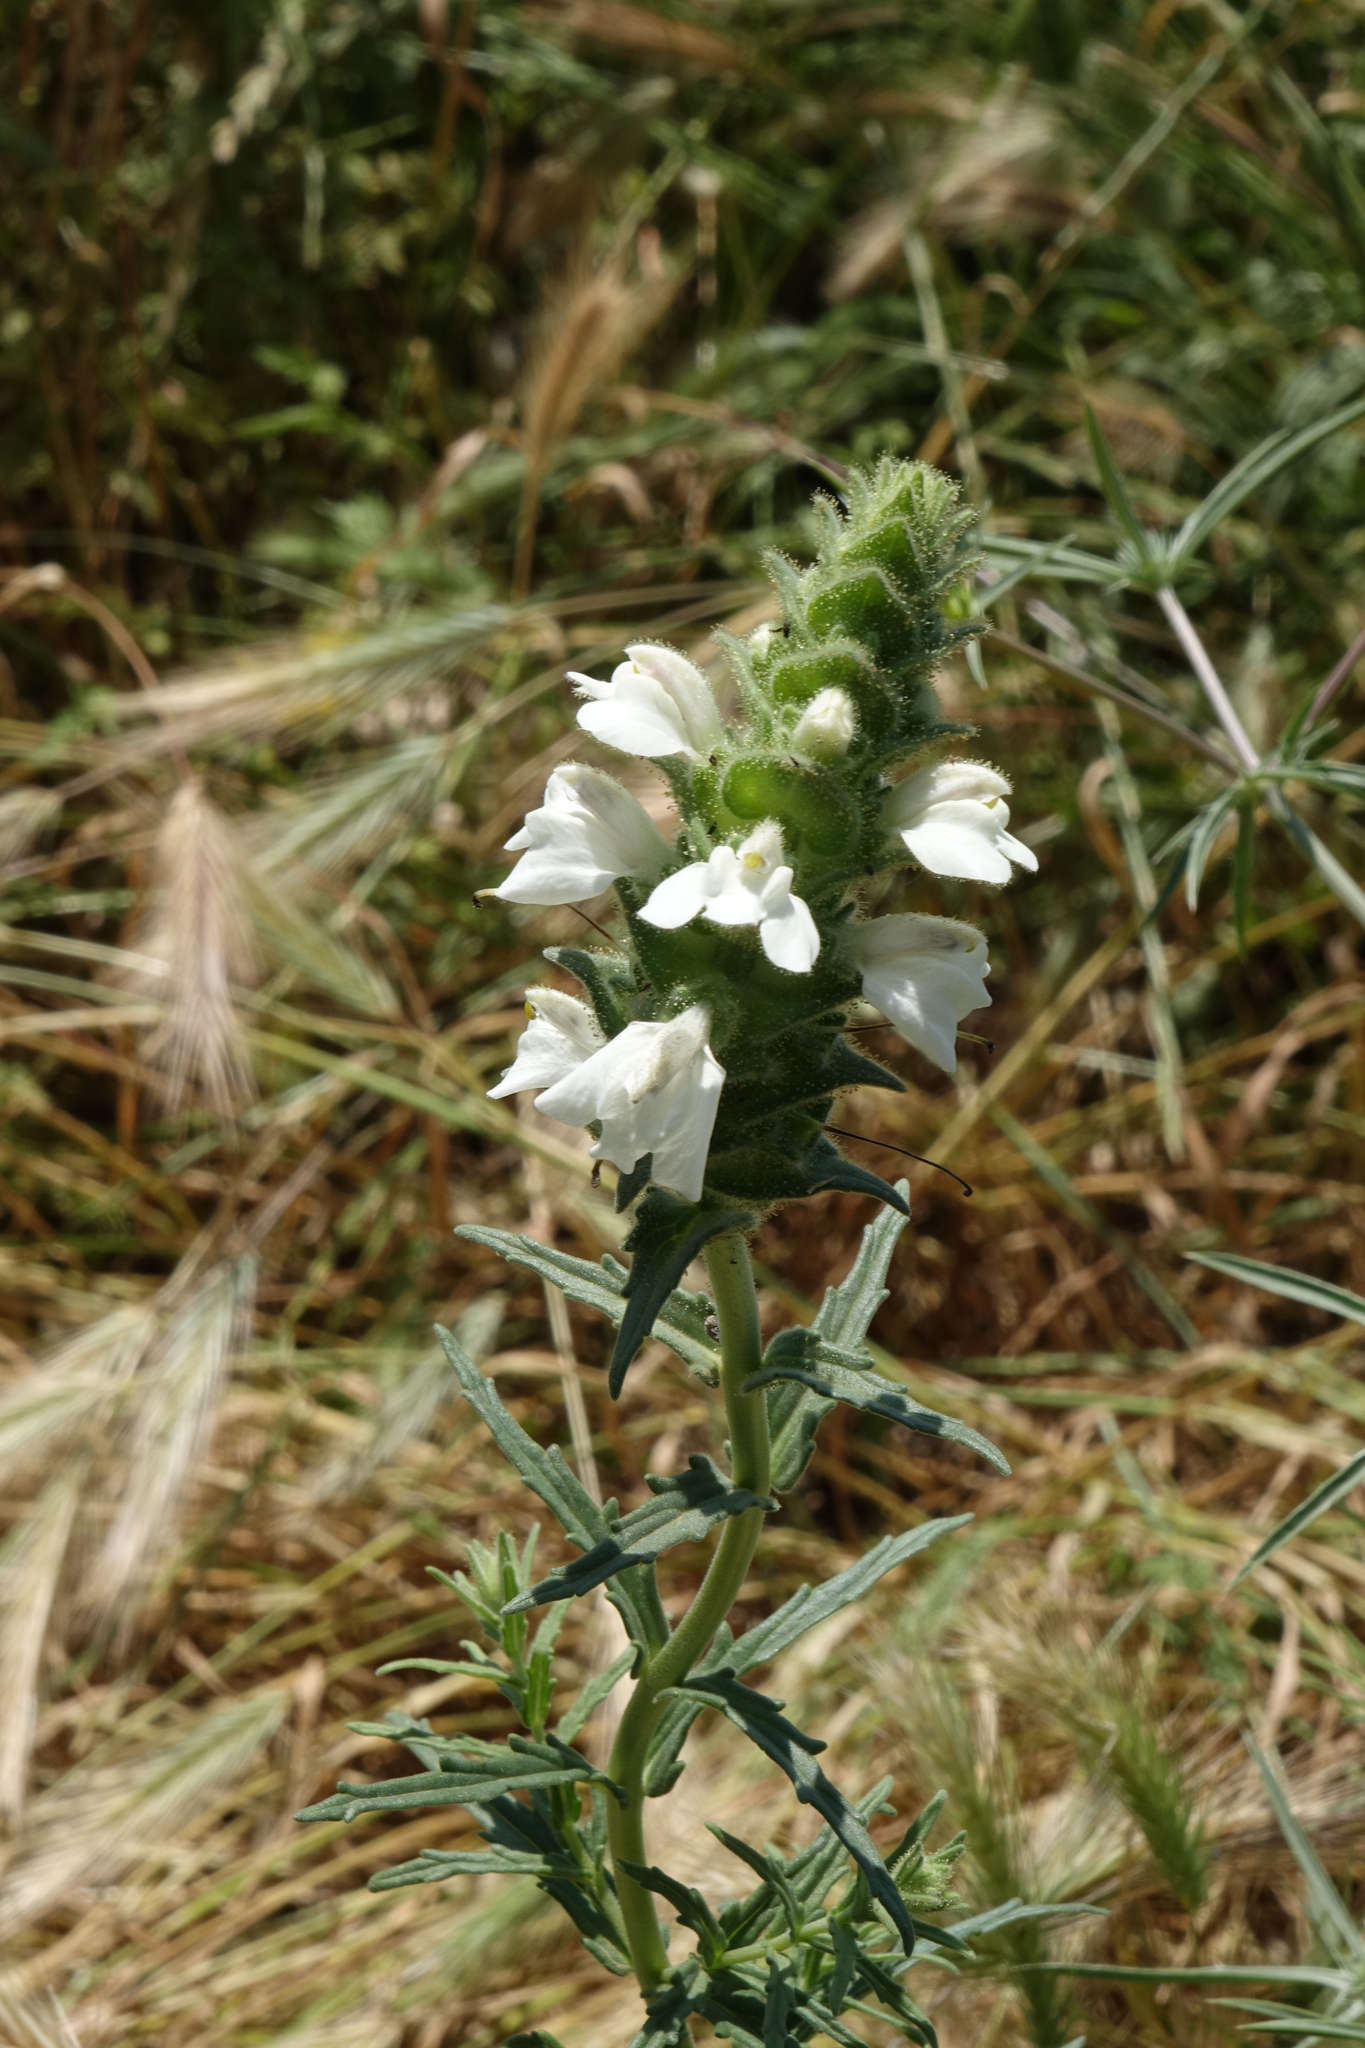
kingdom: Plantae
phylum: Tracheophyta
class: Magnoliopsida
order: Lamiales
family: Orobanchaceae
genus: Bellardia
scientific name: Bellardia trixago
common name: Mediterranean lineseed
